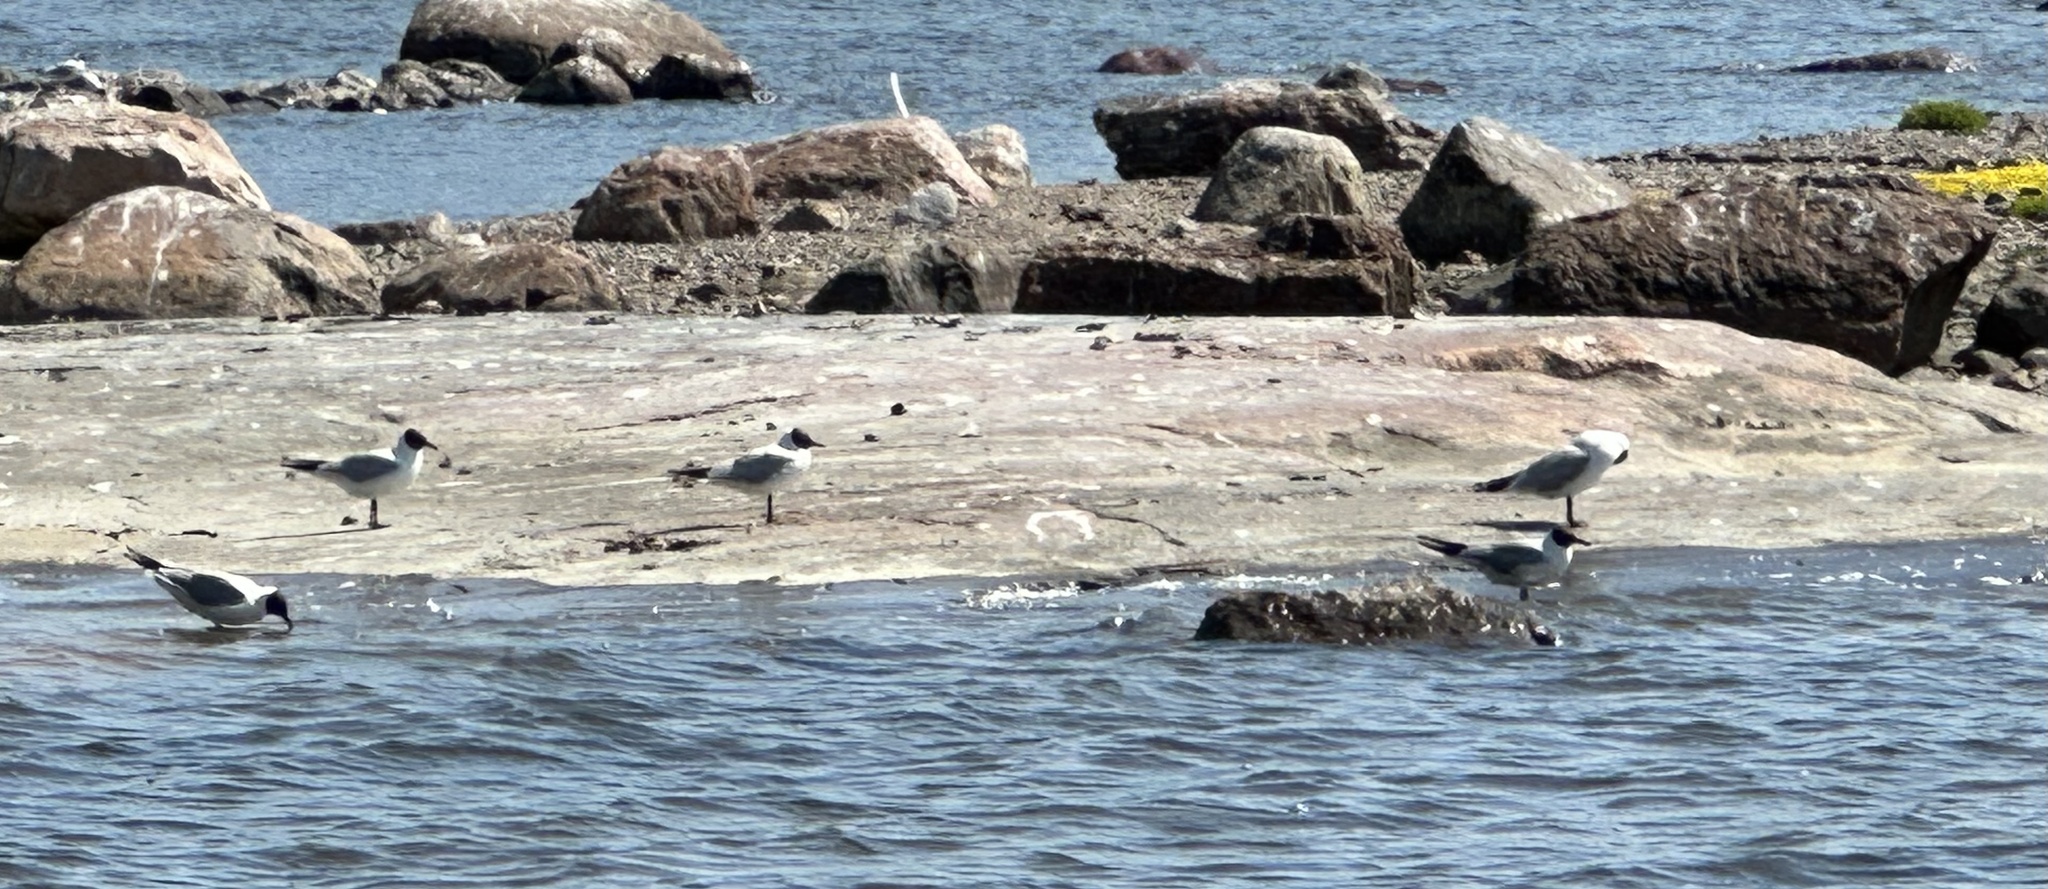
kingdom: Animalia
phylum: Chordata
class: Aves
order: Charadriiformes
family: Laridae
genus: Chroicocephalus
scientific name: Chroicocephalus ridibundus
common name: Black-headed gull
